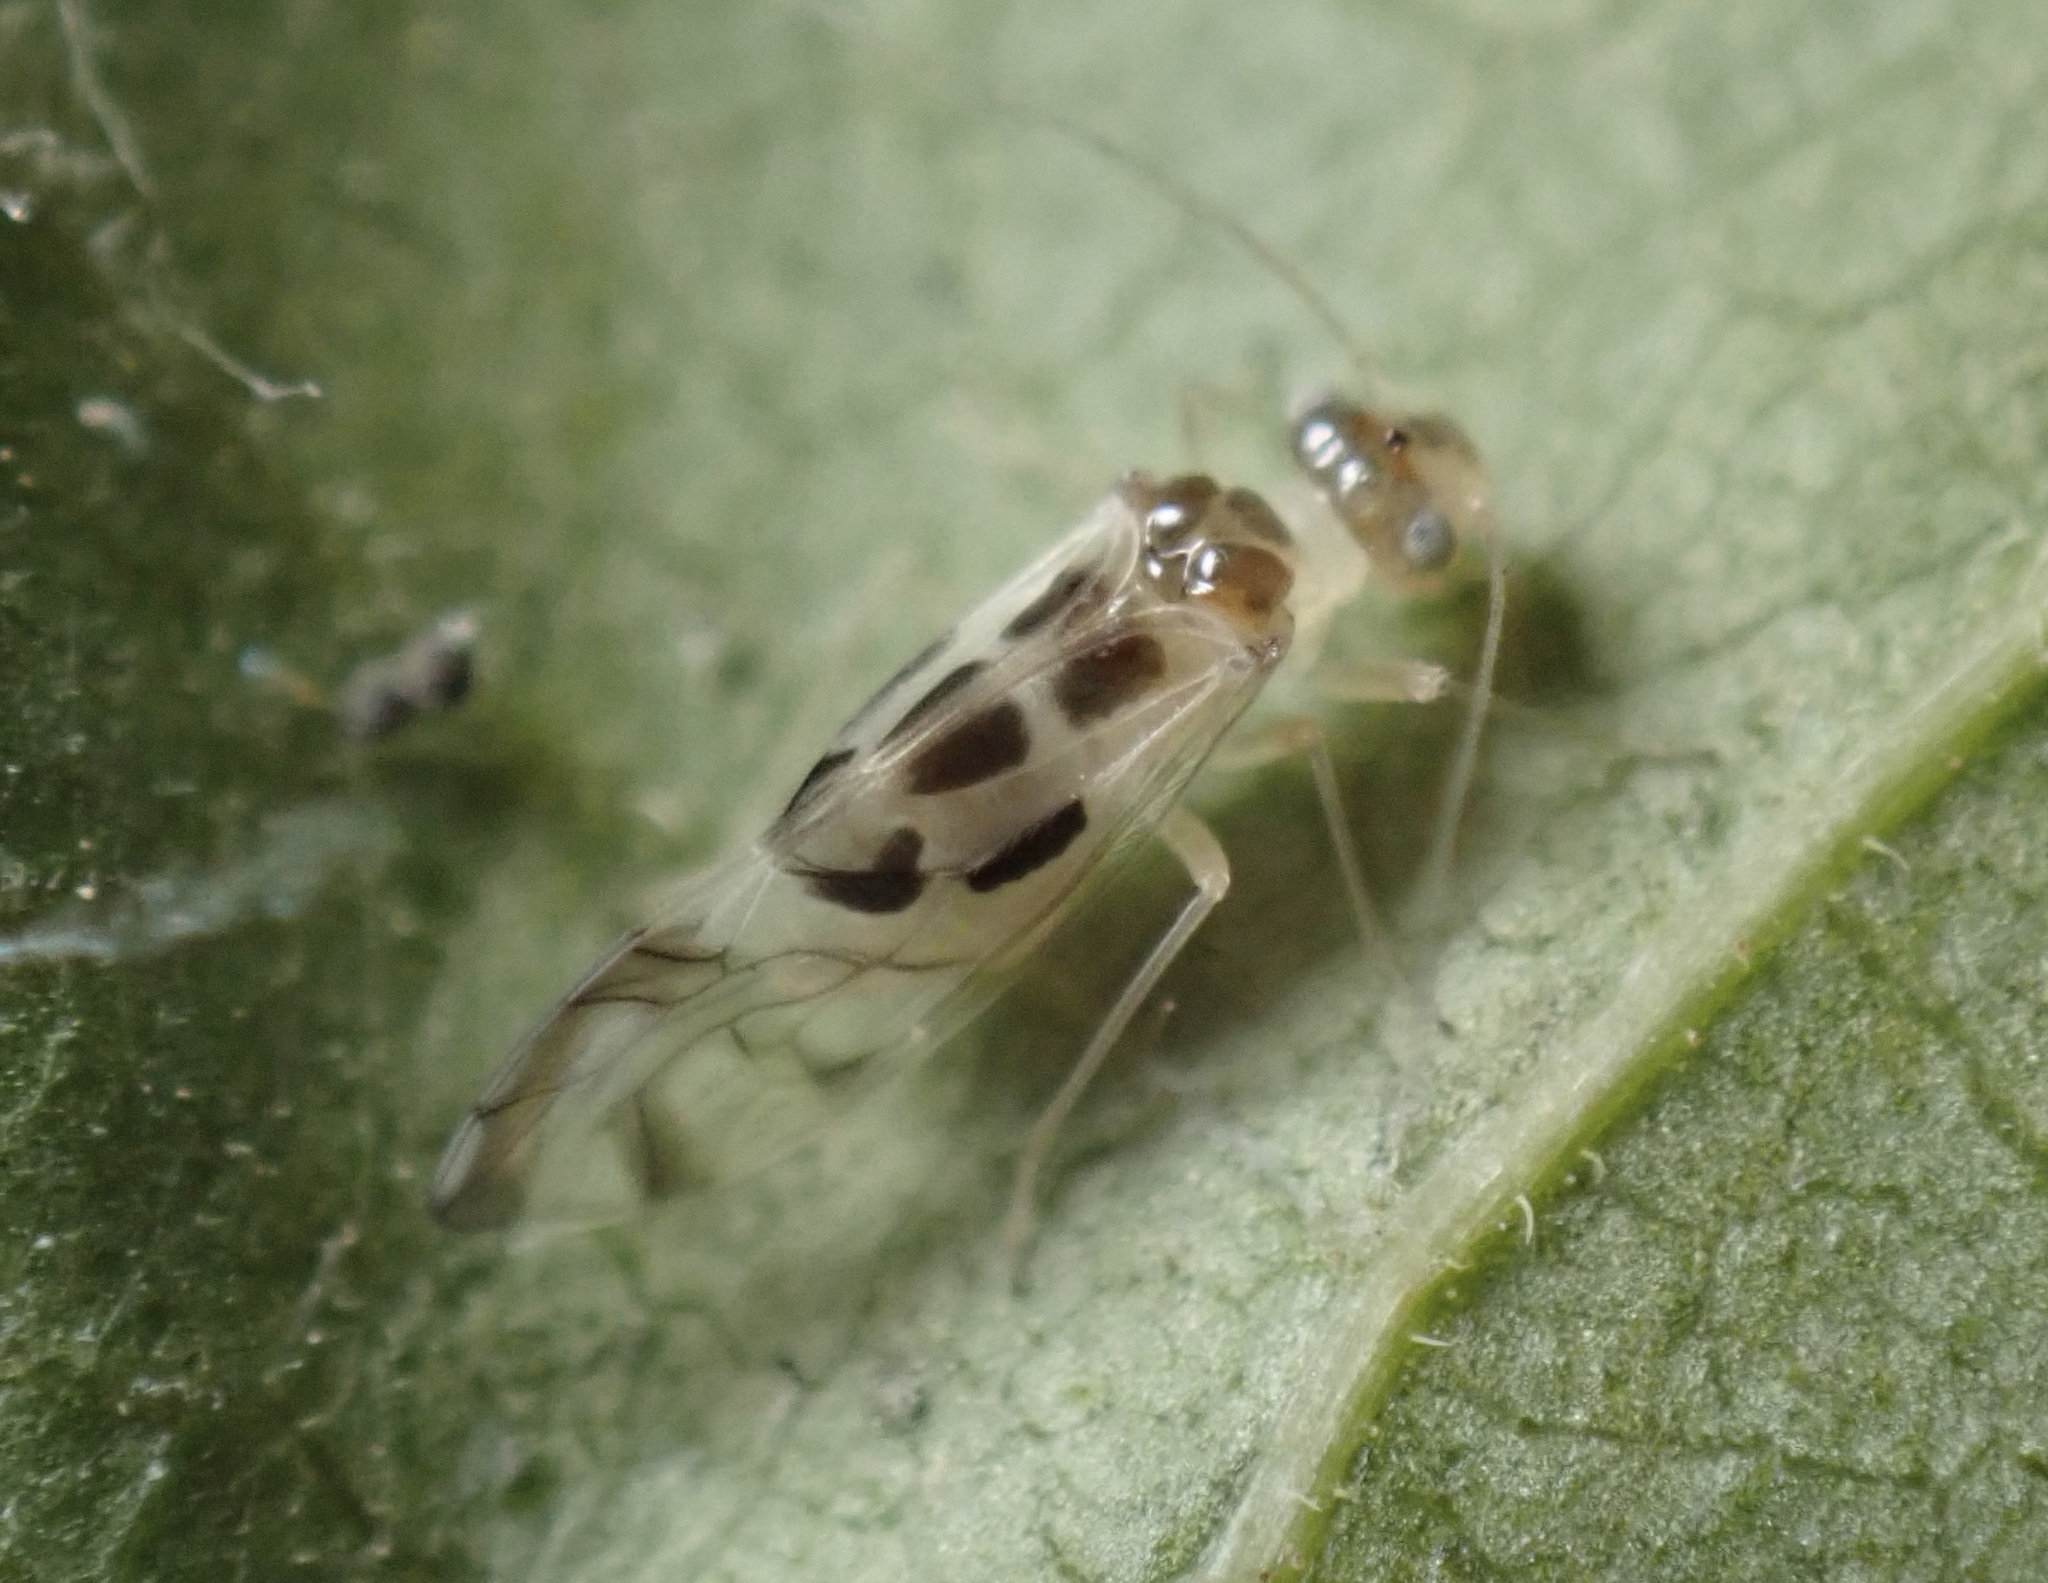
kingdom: Animalia
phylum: Arthropoda
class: Insecta
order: Psocodea
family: Stenopsocidae
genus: Graphopsocus
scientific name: Graphopsocus cruciatus
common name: Lizard bark louse
